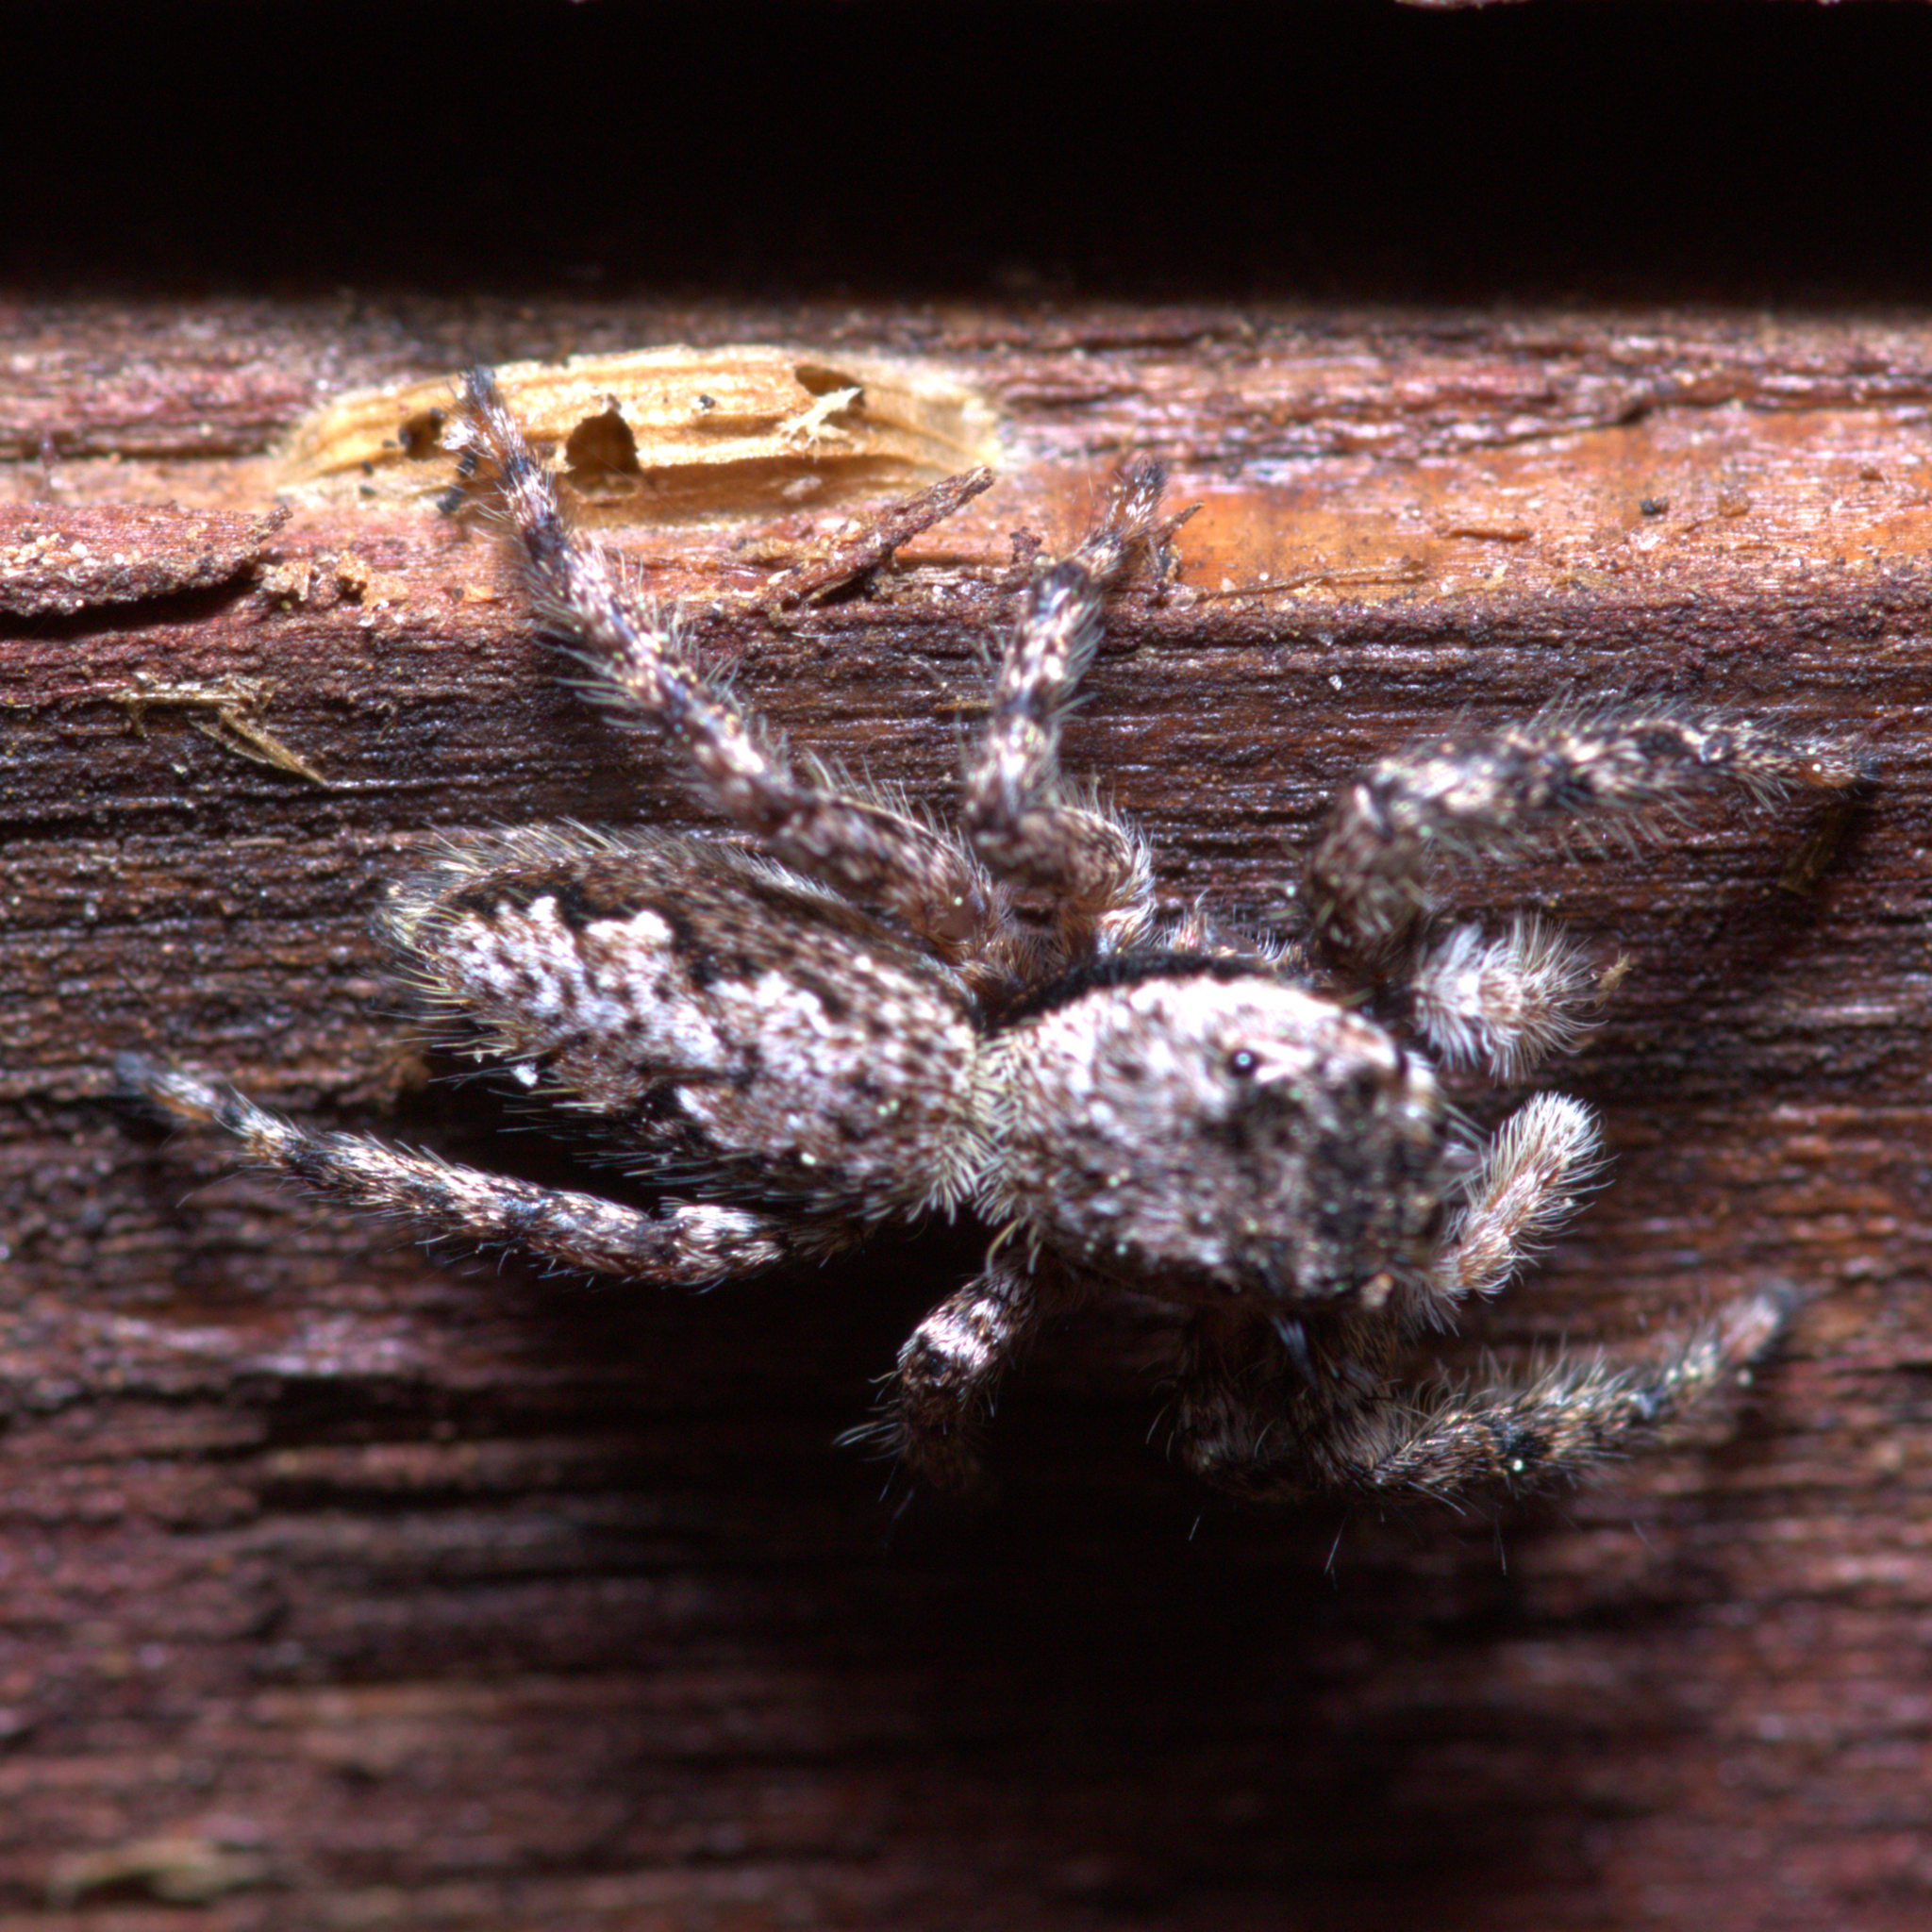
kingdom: Animalia
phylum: Arthropoda
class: Arachnida
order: Araneae
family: Salticidae
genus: Platycryptus
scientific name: Platycryptus undatus
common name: Tan jumping spider
